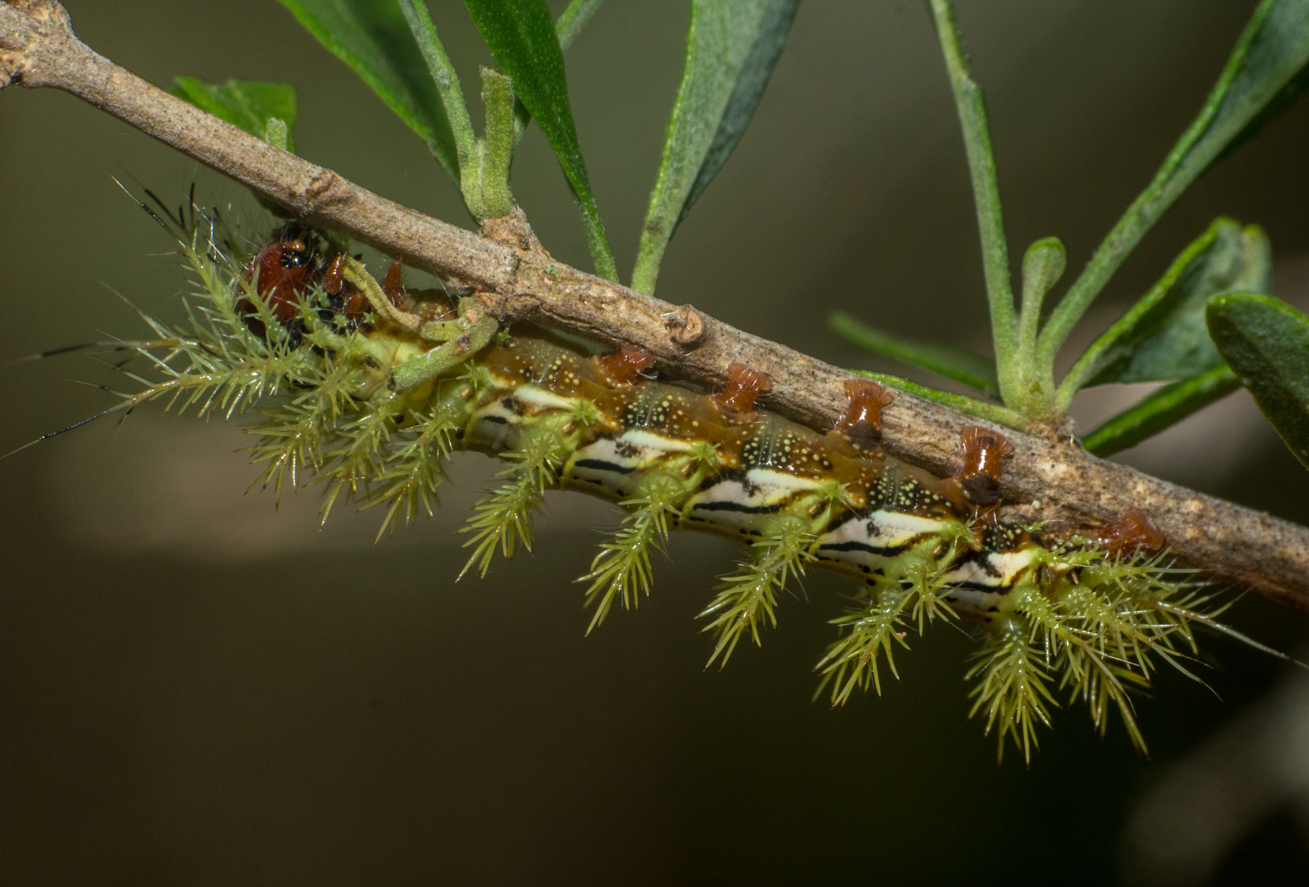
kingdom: Animalia
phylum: Arthropoda
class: Insecta
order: Lepidoptera
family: Saturniidae
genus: Automeris
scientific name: Automeris naranja
